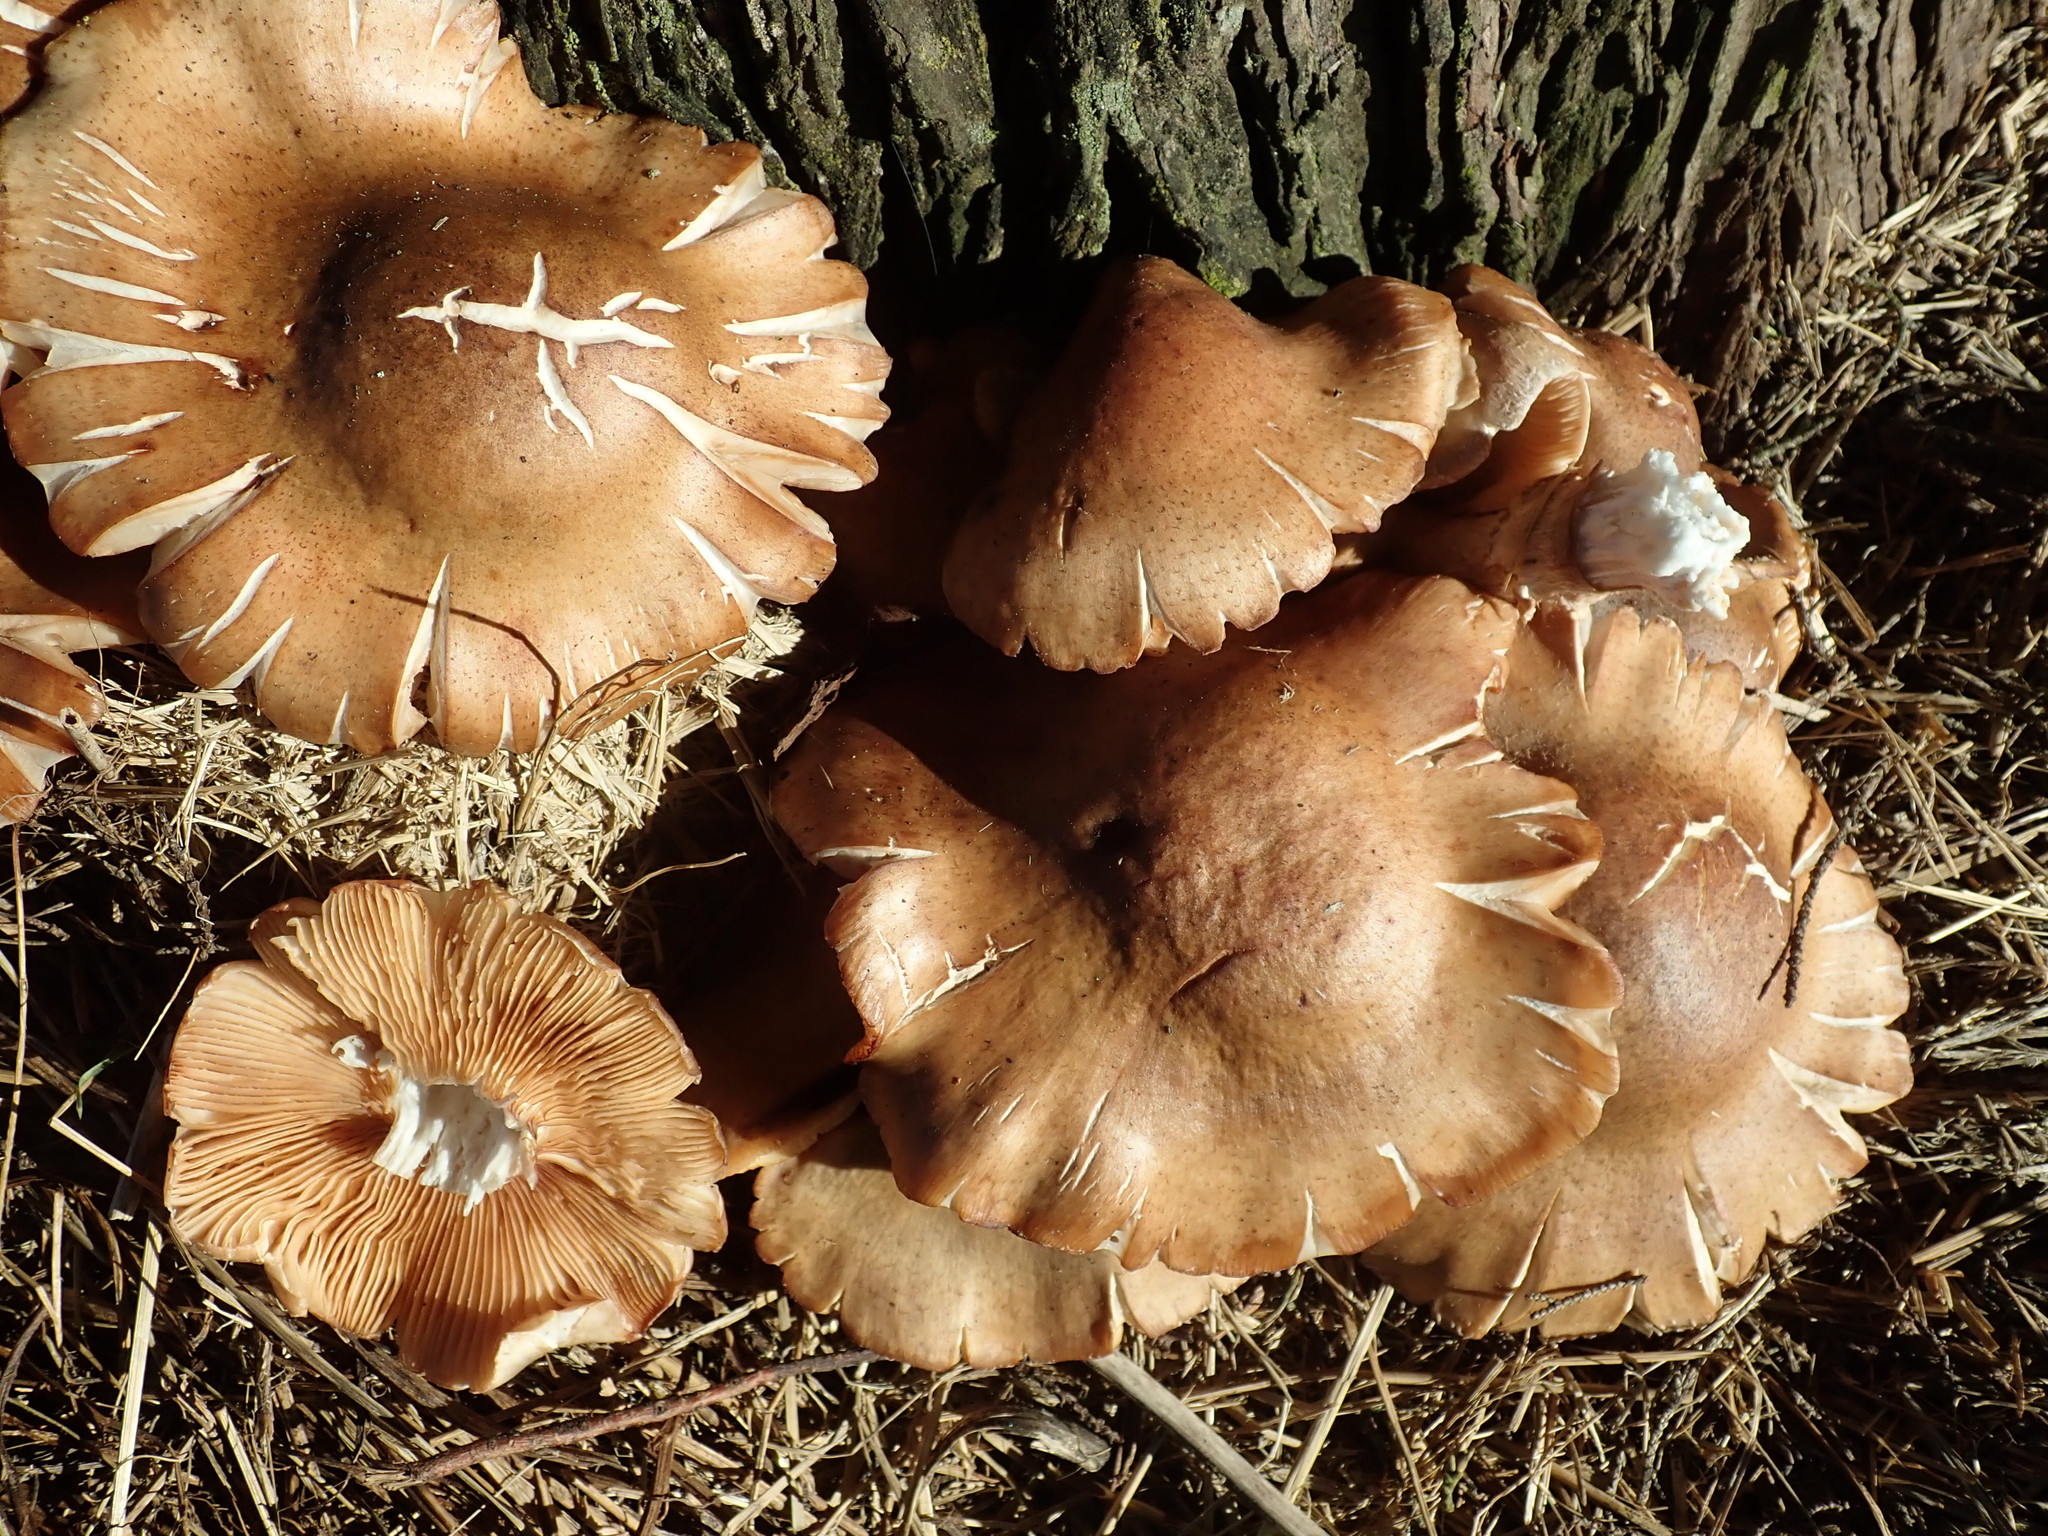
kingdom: Fungi
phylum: Basidiomycota
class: Agaricomycetes
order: Agaricales
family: Physalacriaceae
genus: Armillaria
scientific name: Armillaria mellea
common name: Honey fungus
